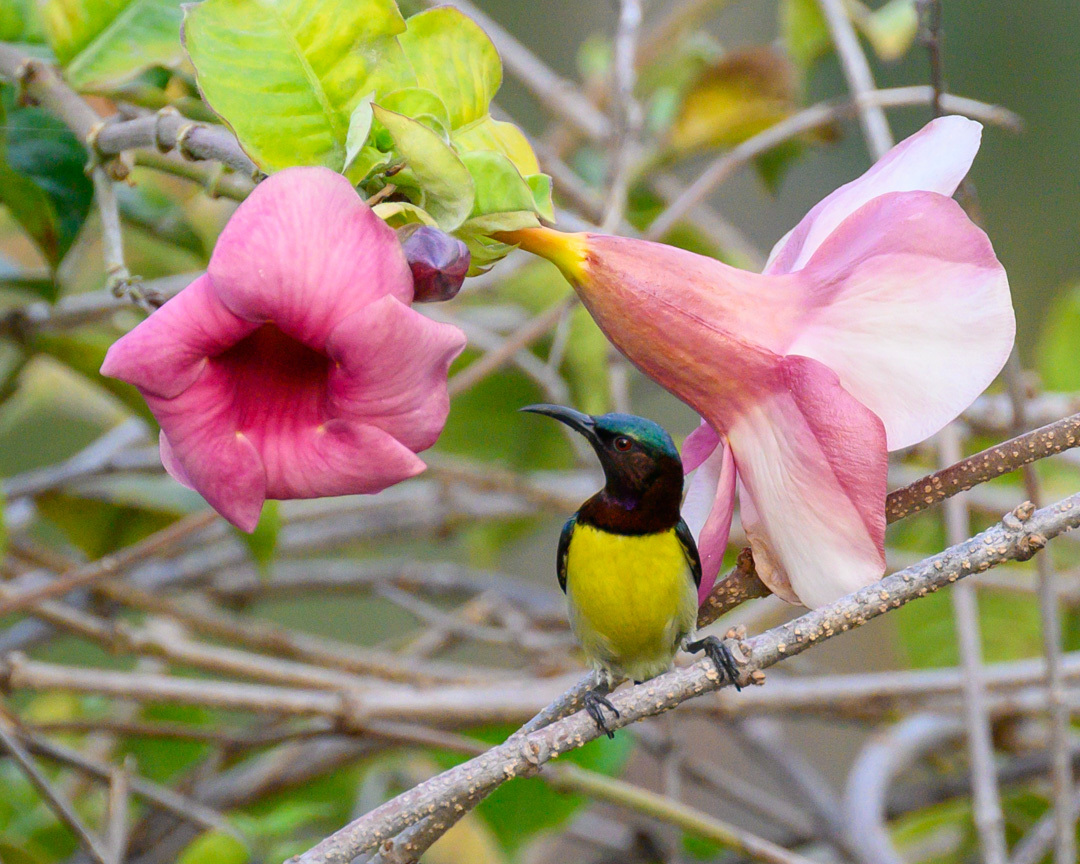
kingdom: Animalia
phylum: Chordata
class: Aves
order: Passeriformes
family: Nectariniidae
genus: Leptocoma
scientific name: Leptocoma zeylonica
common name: Purple-rumped sunbird
